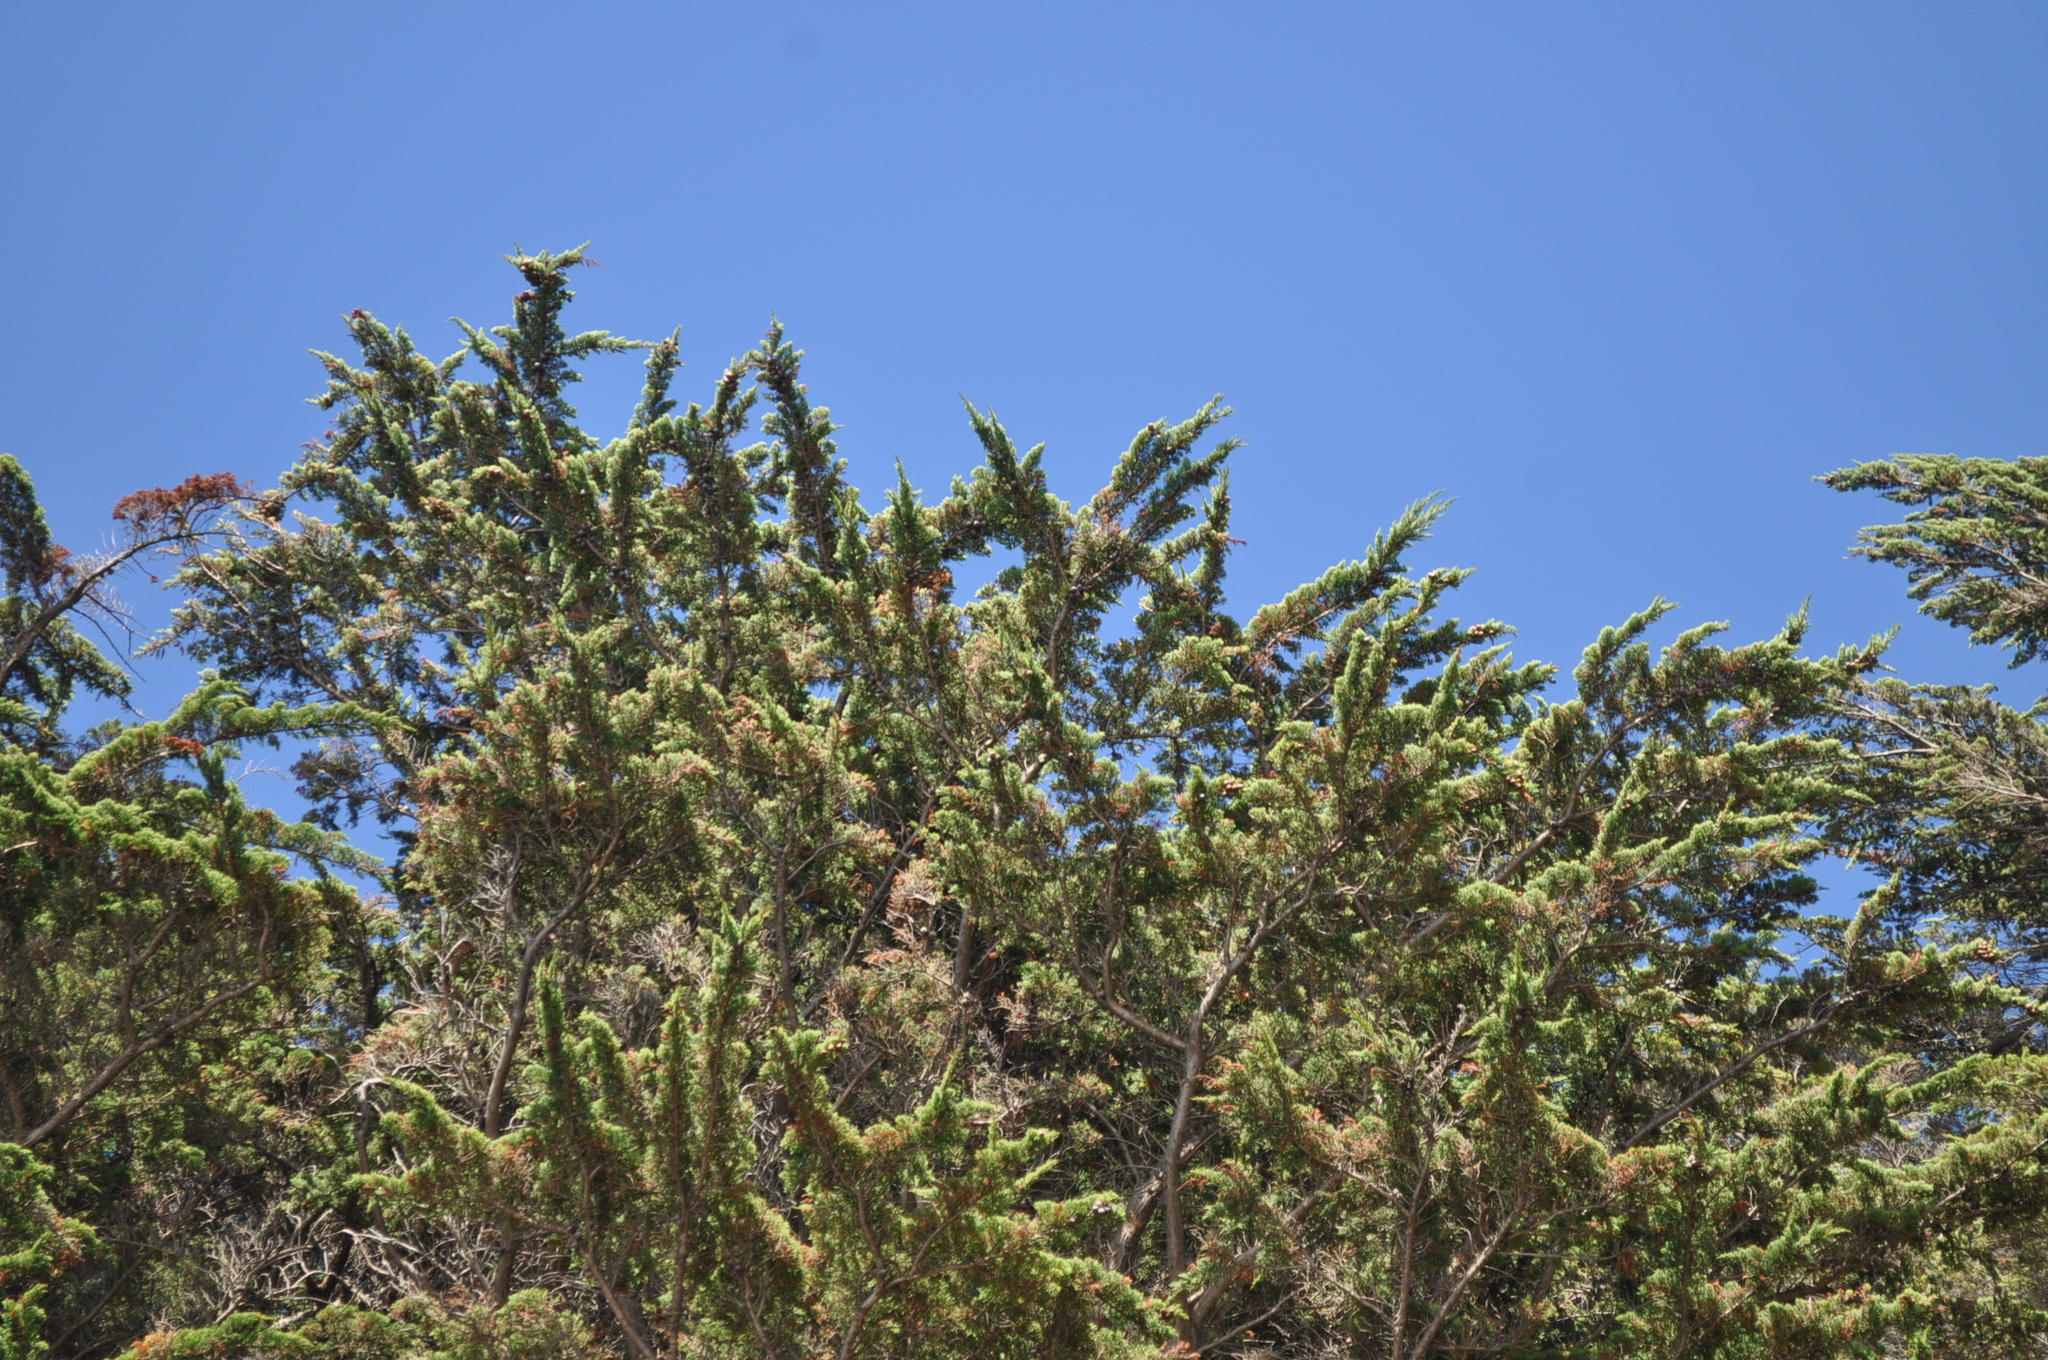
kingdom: Plantae
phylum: Tracheophyta
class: Pinopsida
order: Pinales
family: Cupressaceae
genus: Cupressus
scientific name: Cupressus macrocarpa
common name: Monterey cypress
